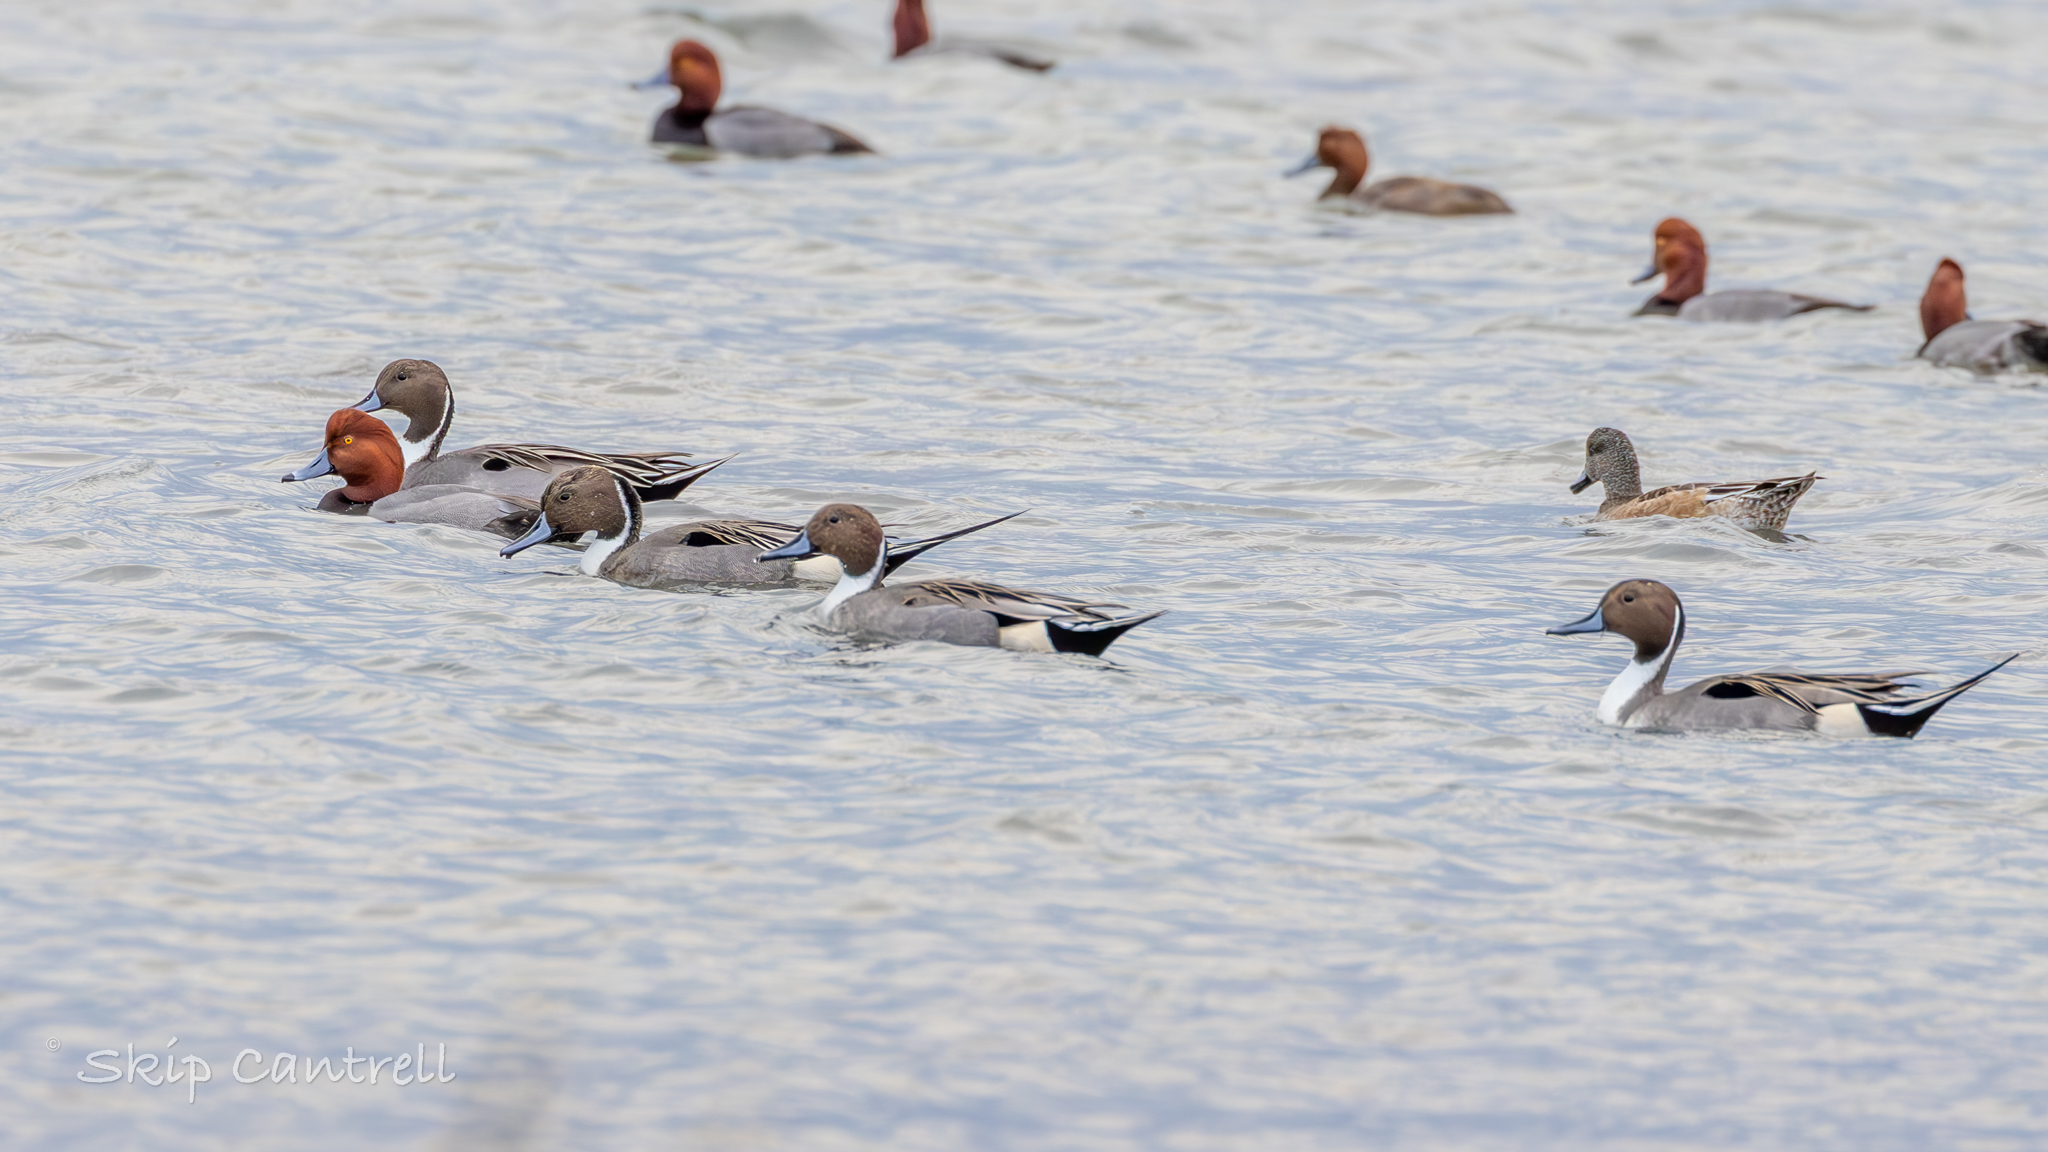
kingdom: Animalia
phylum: Chordata
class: Aves
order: Anseriformes
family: Anatidae
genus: Anas
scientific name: Anas acuta
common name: Northern pintail
